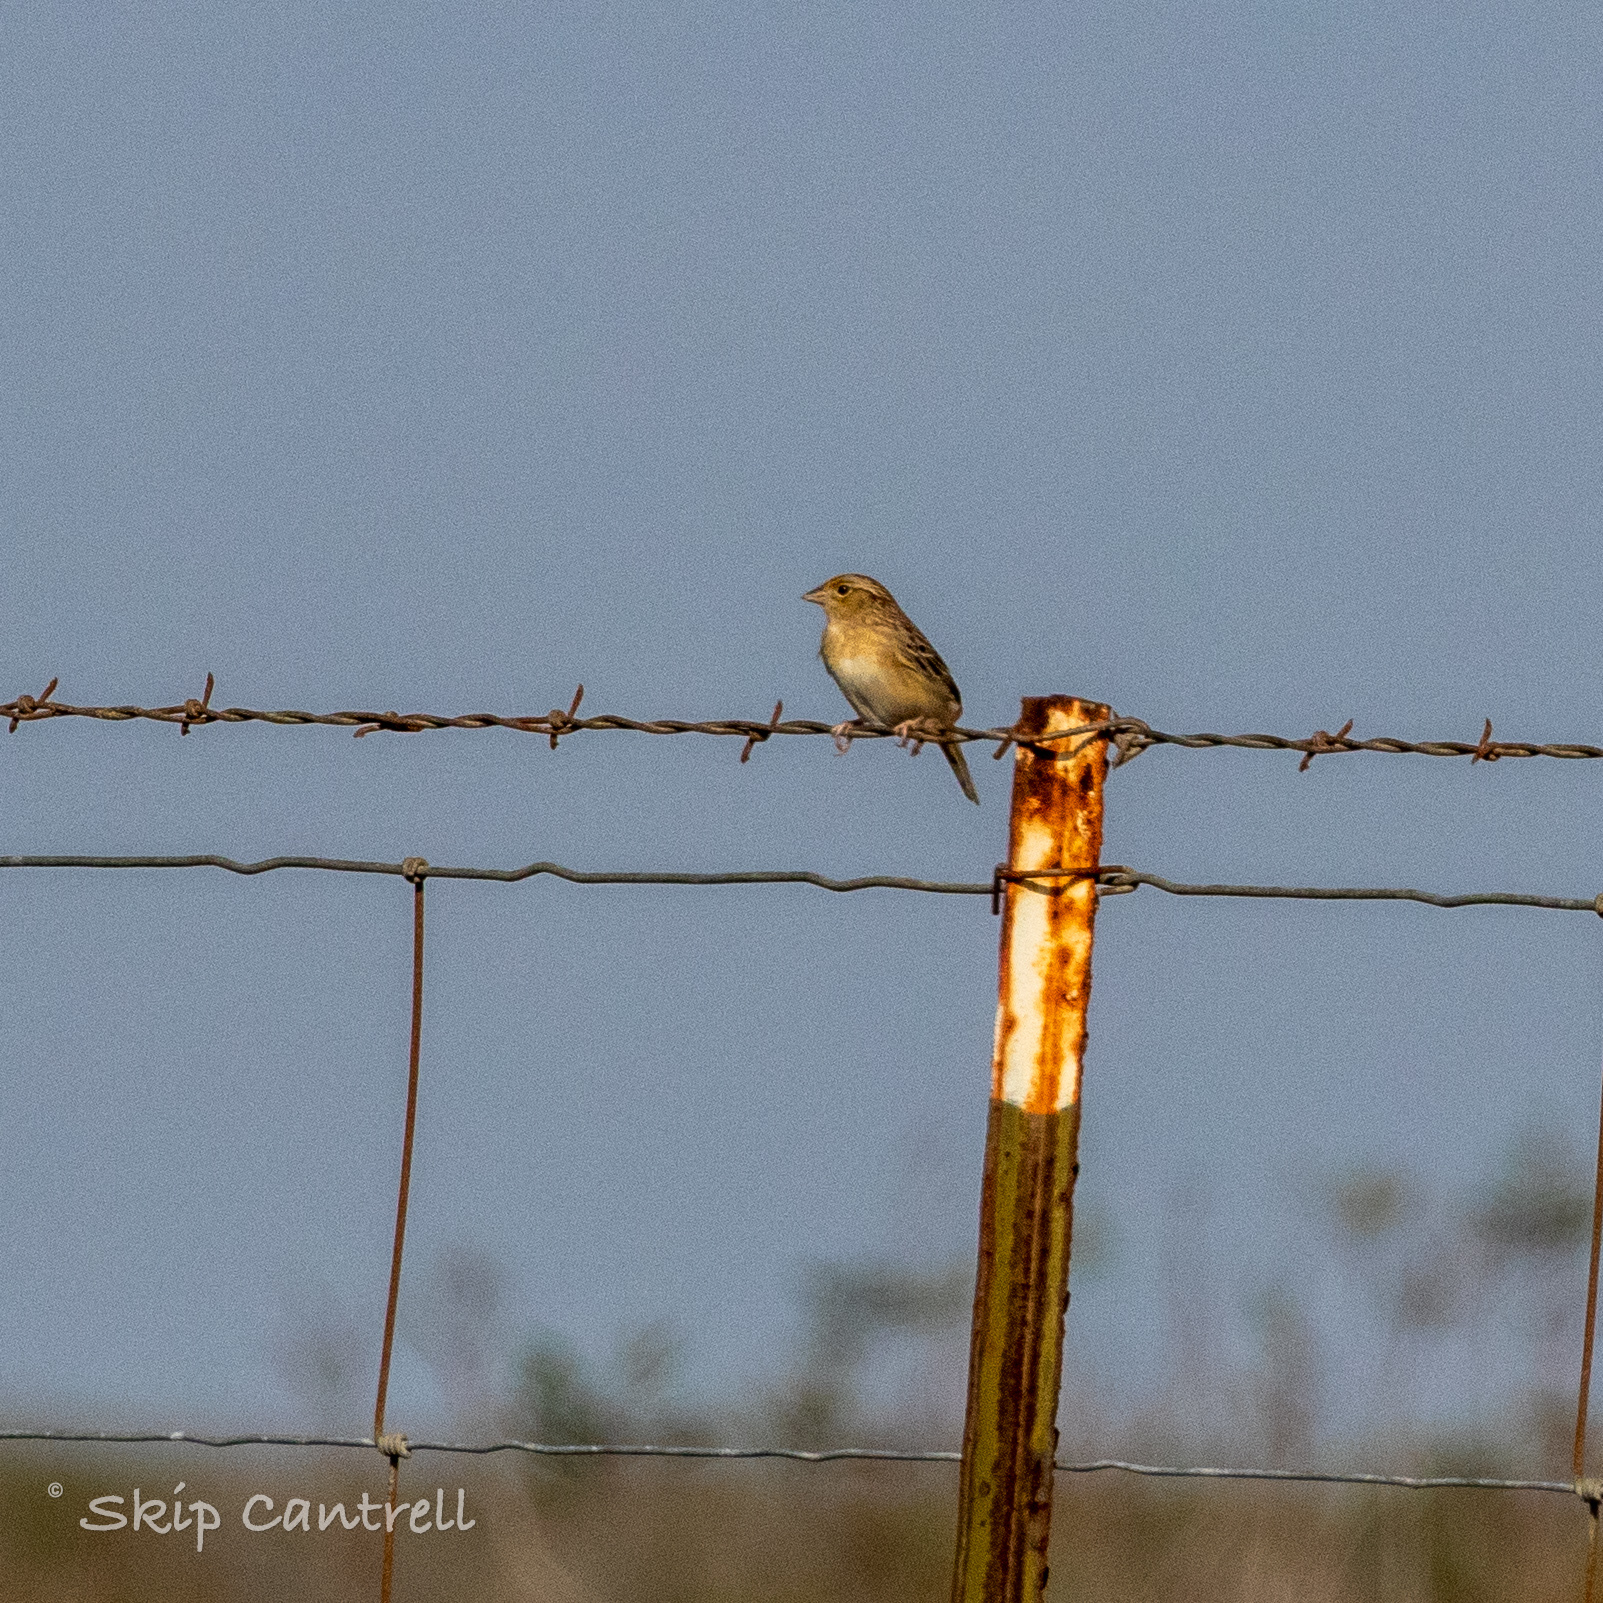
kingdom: Animalia
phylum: Chordata
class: Aves
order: Passeriformes
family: Passerellidae
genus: Ammodramus
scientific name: Ammodramus savannarum
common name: Grasshopper sparrow
